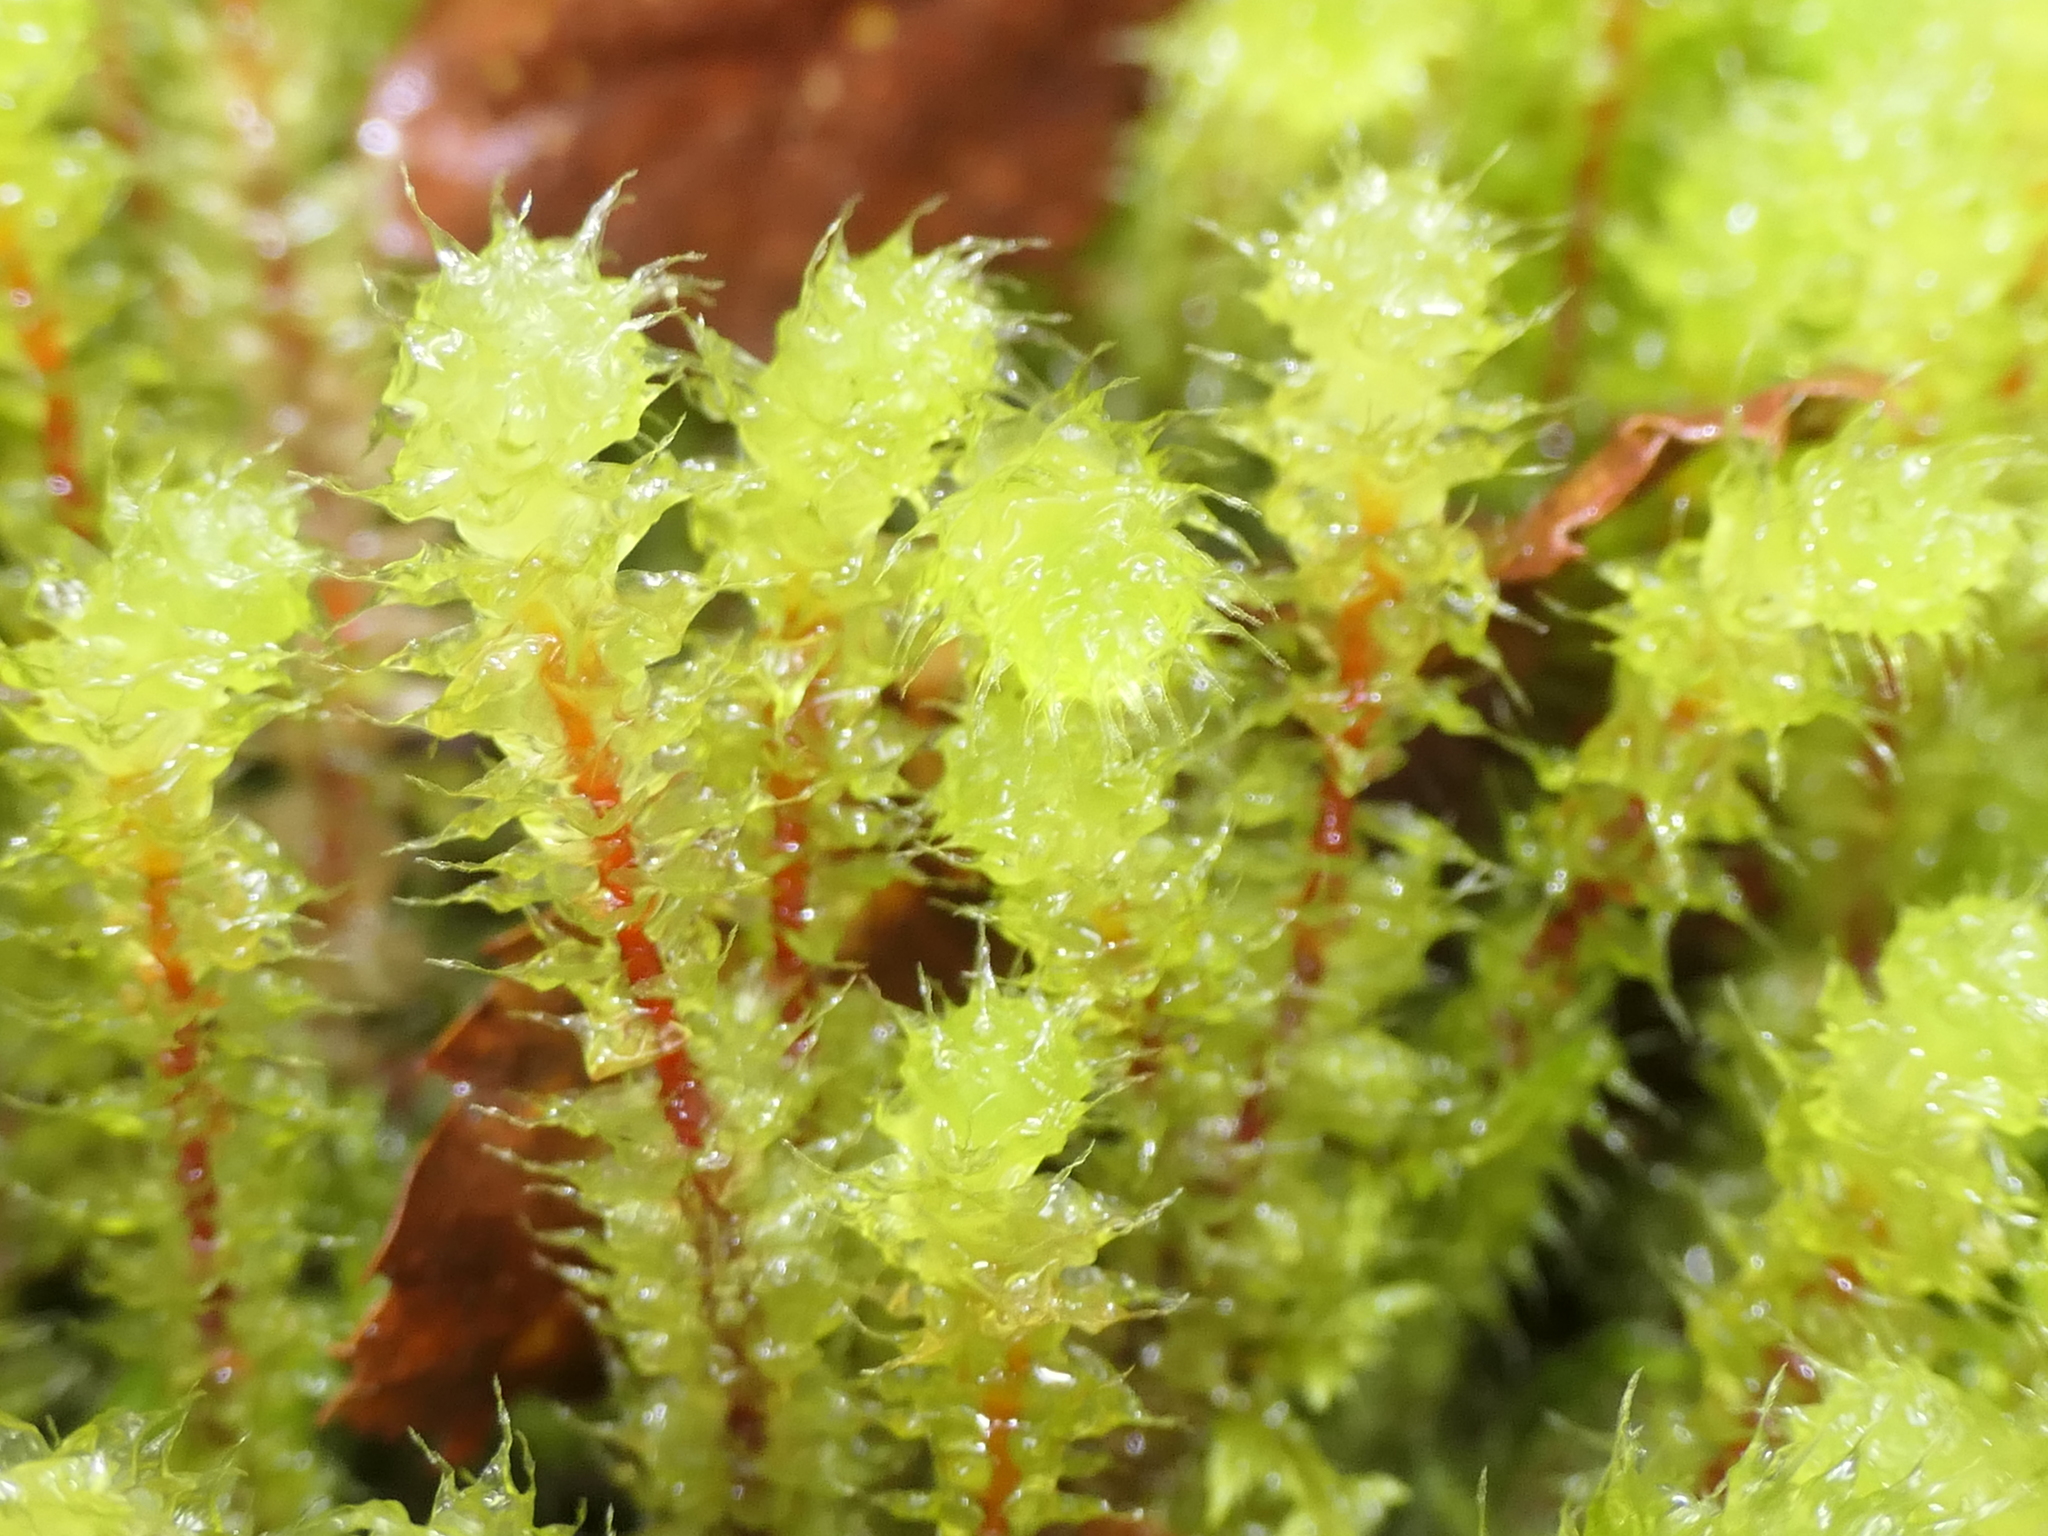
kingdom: Plantae
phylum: Bryophyta
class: Bryopsida
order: Ptychomniales
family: Ptychomniaceae
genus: Ptychomnion
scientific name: Ptychomnion aciculare
